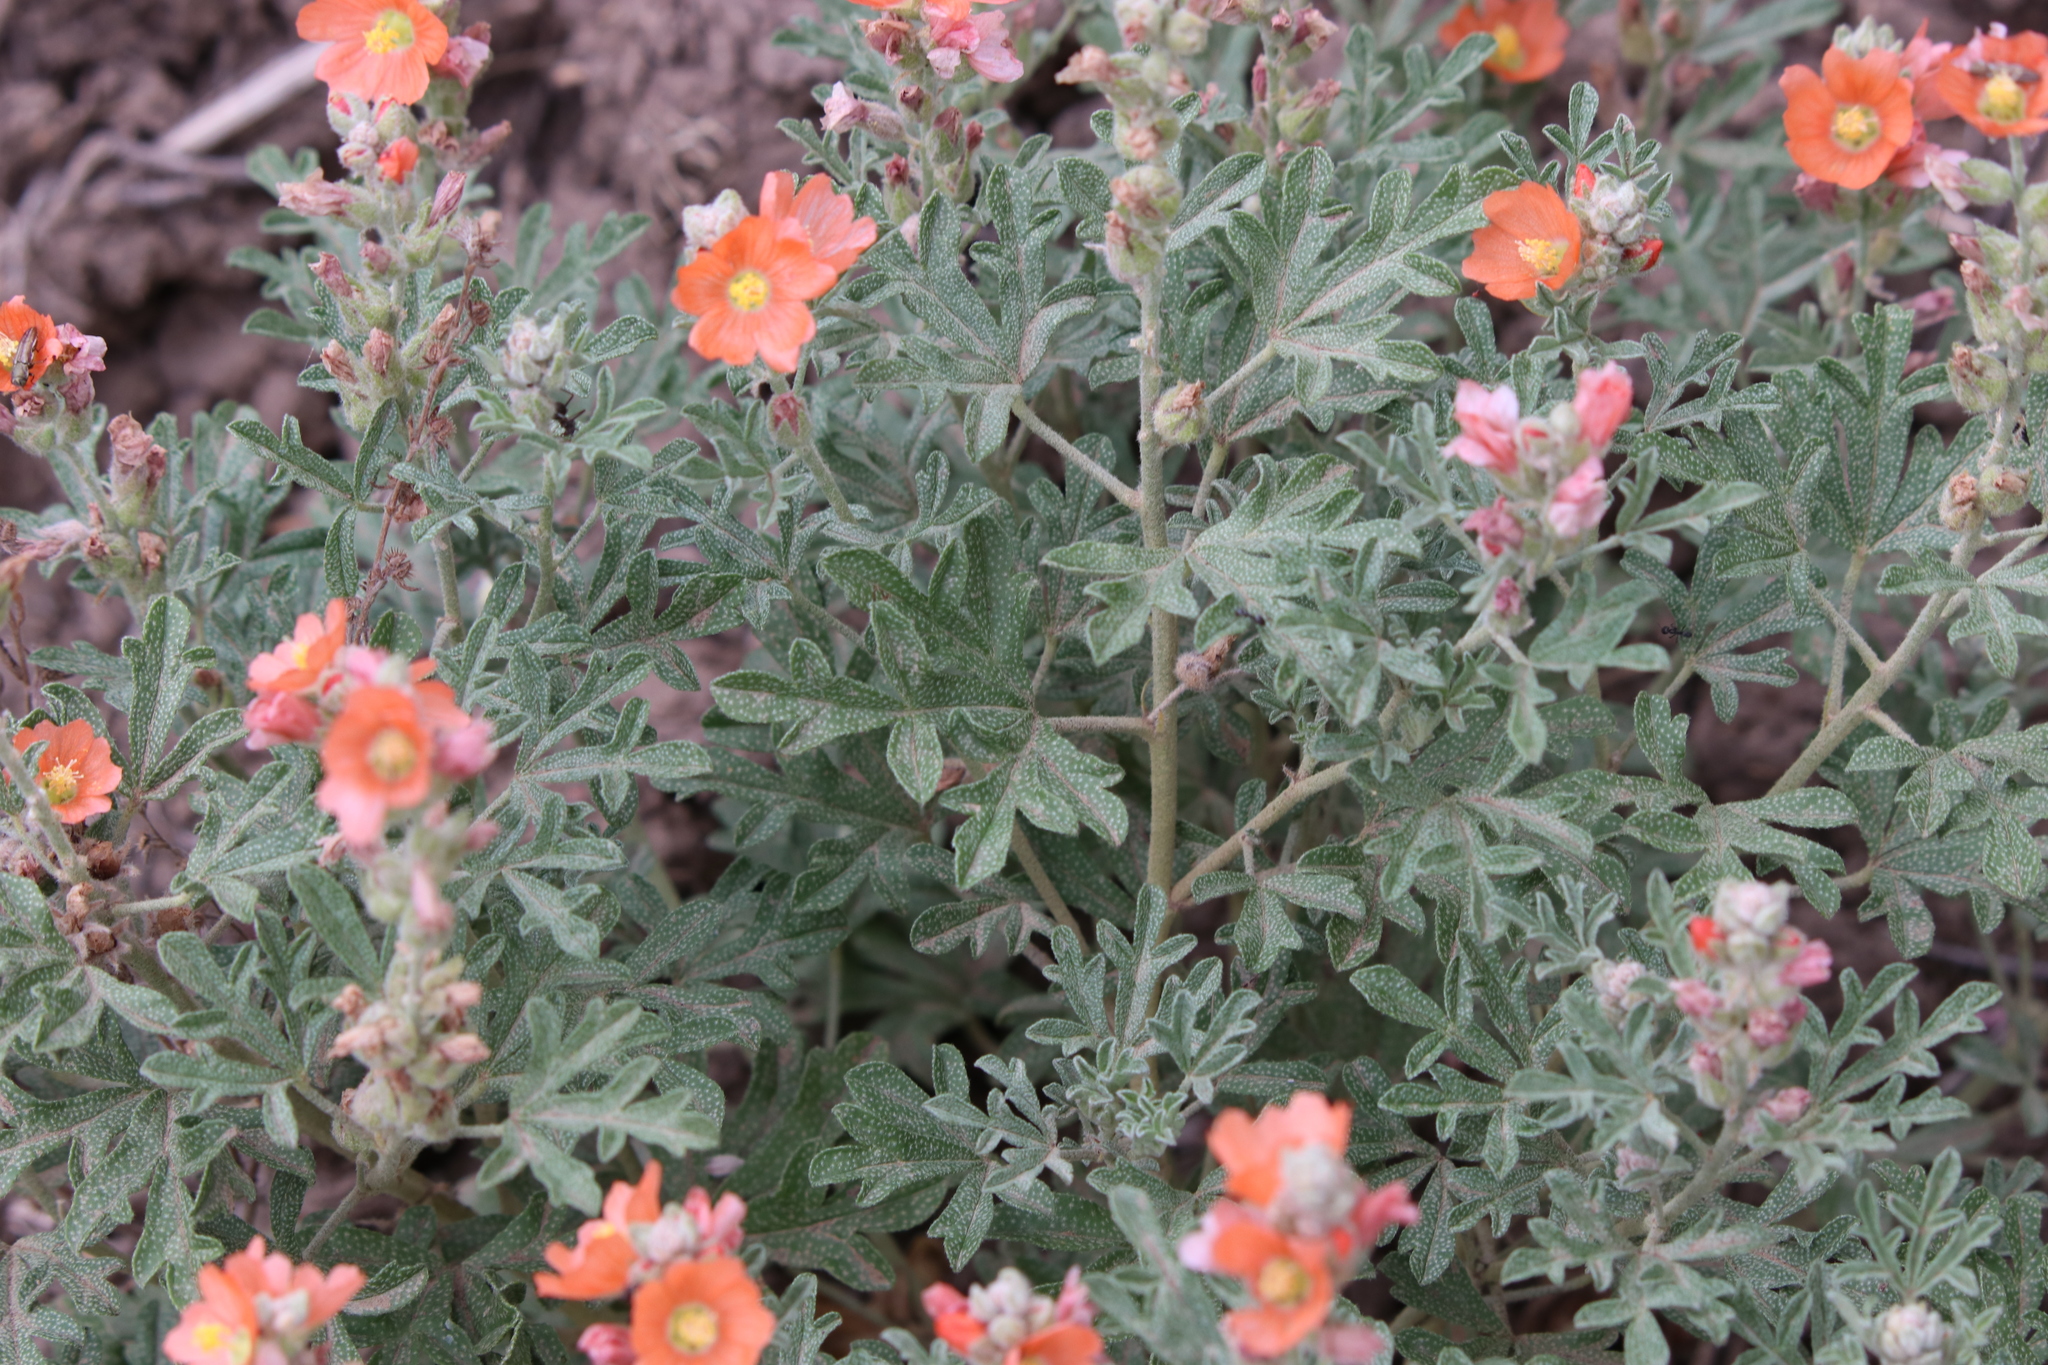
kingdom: Plantae
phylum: Tracheophyta
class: Magnoliopsida
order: Malvales
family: Malvaceae
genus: Sphaeralcea
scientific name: Sphaeralcea coccinea
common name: Moss-rose
